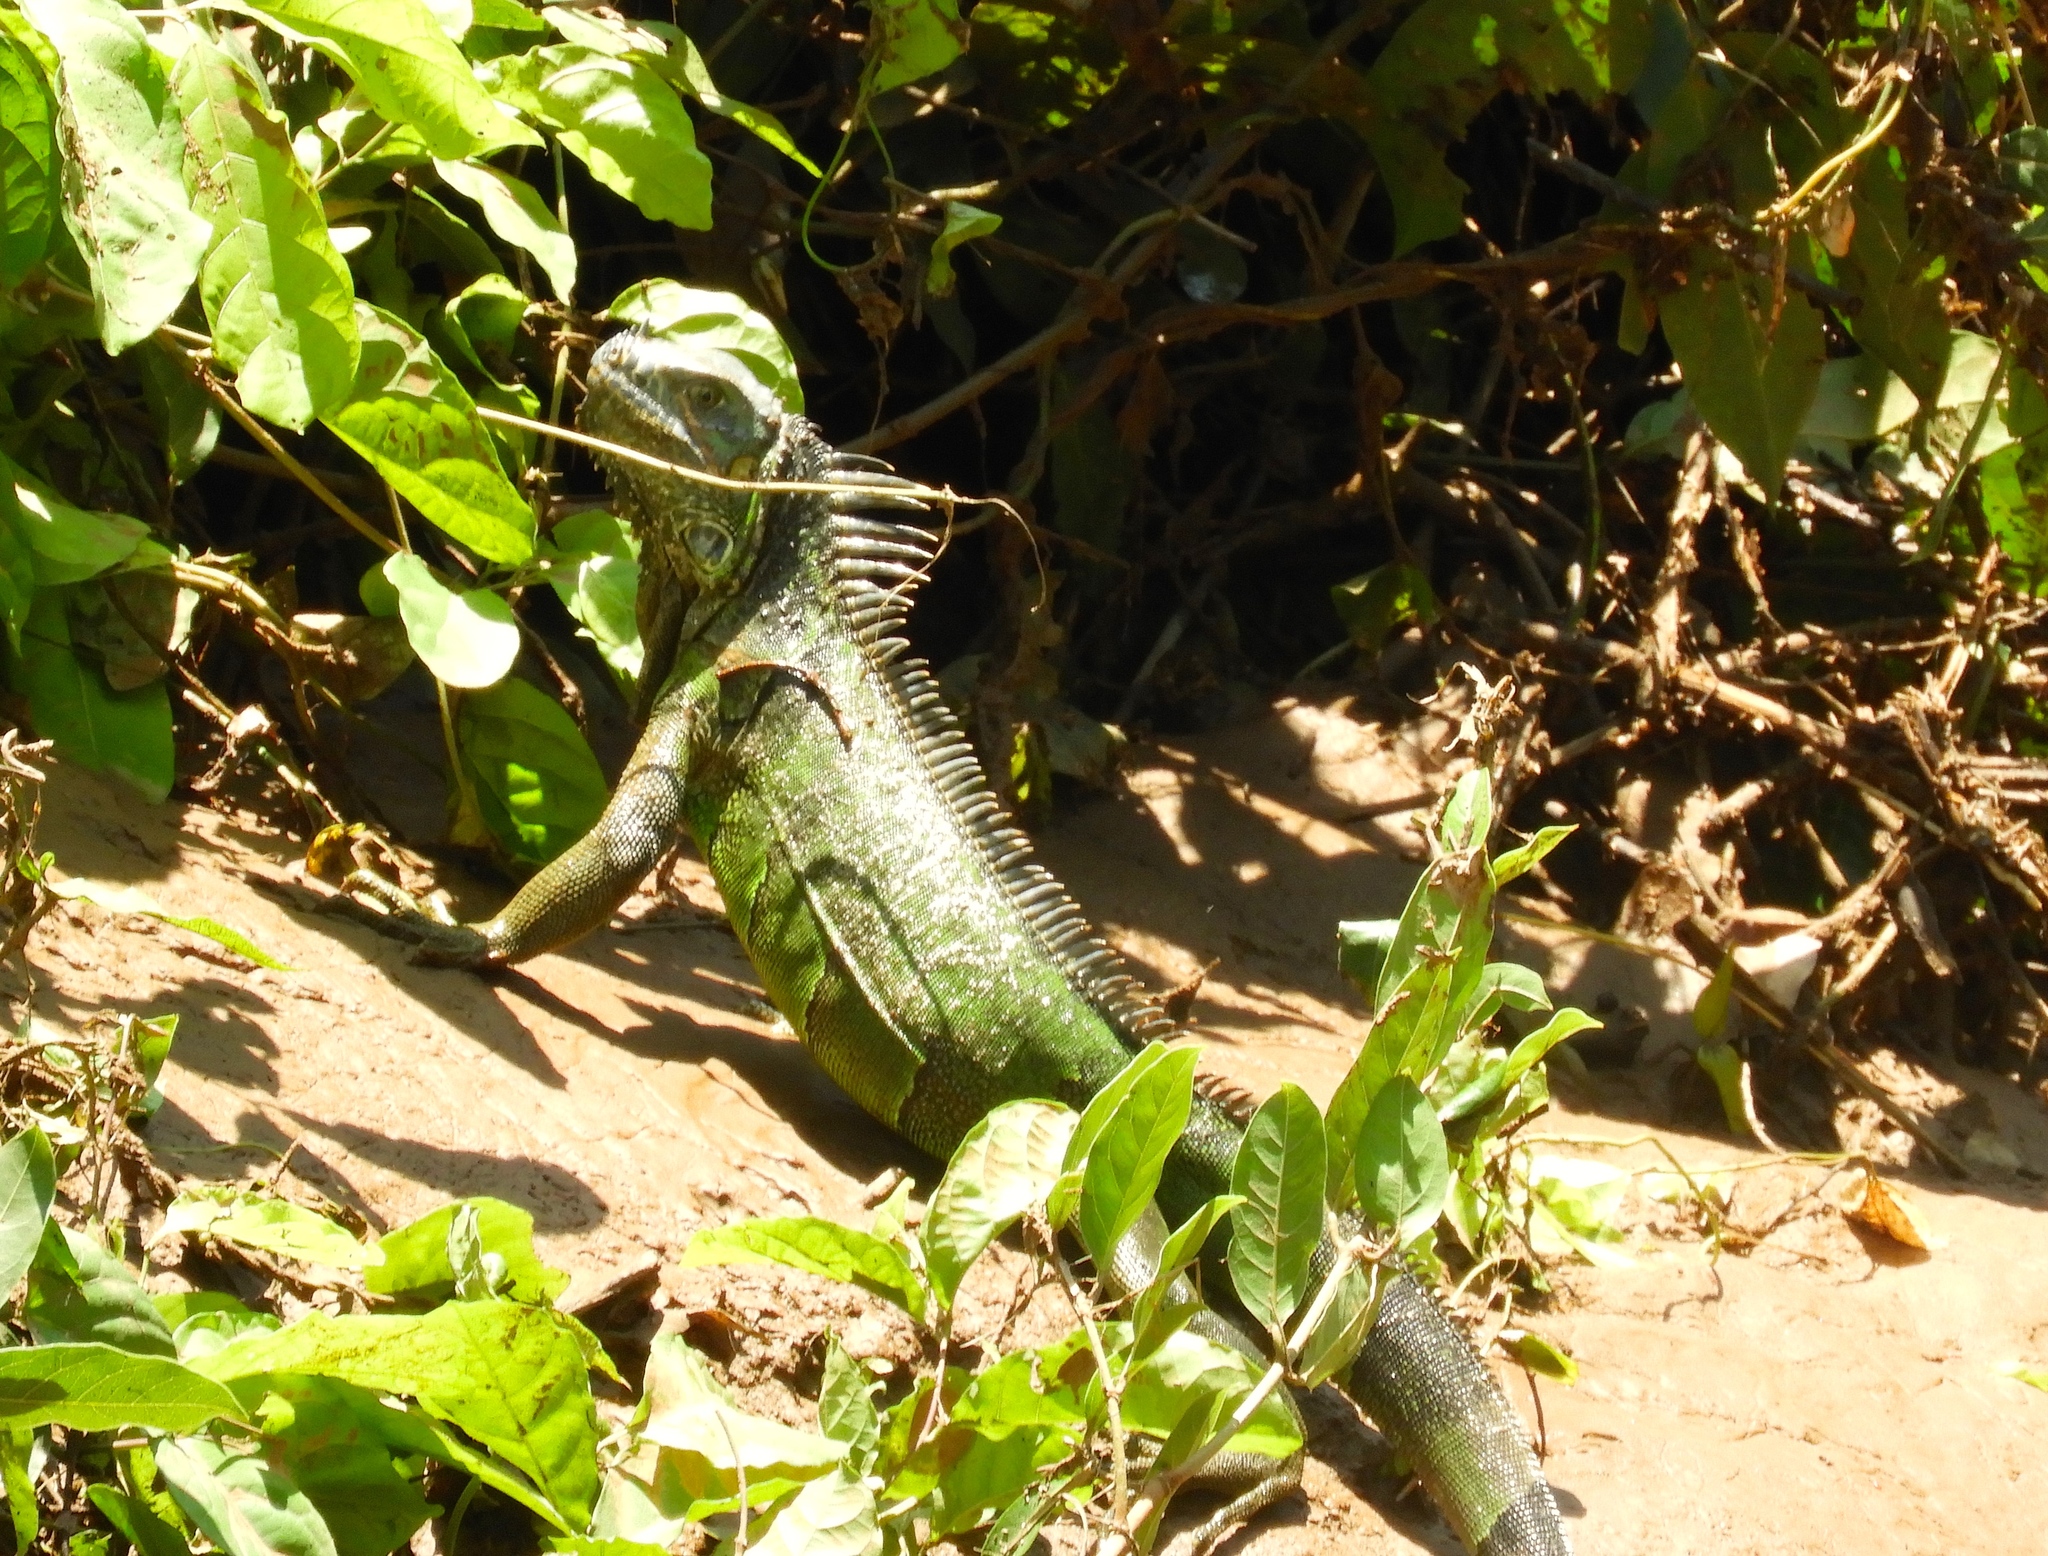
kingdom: Animalia
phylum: Chordata
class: Squamata
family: Iguanidae
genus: Iguana
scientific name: Iguana iguana
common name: Green iguana
